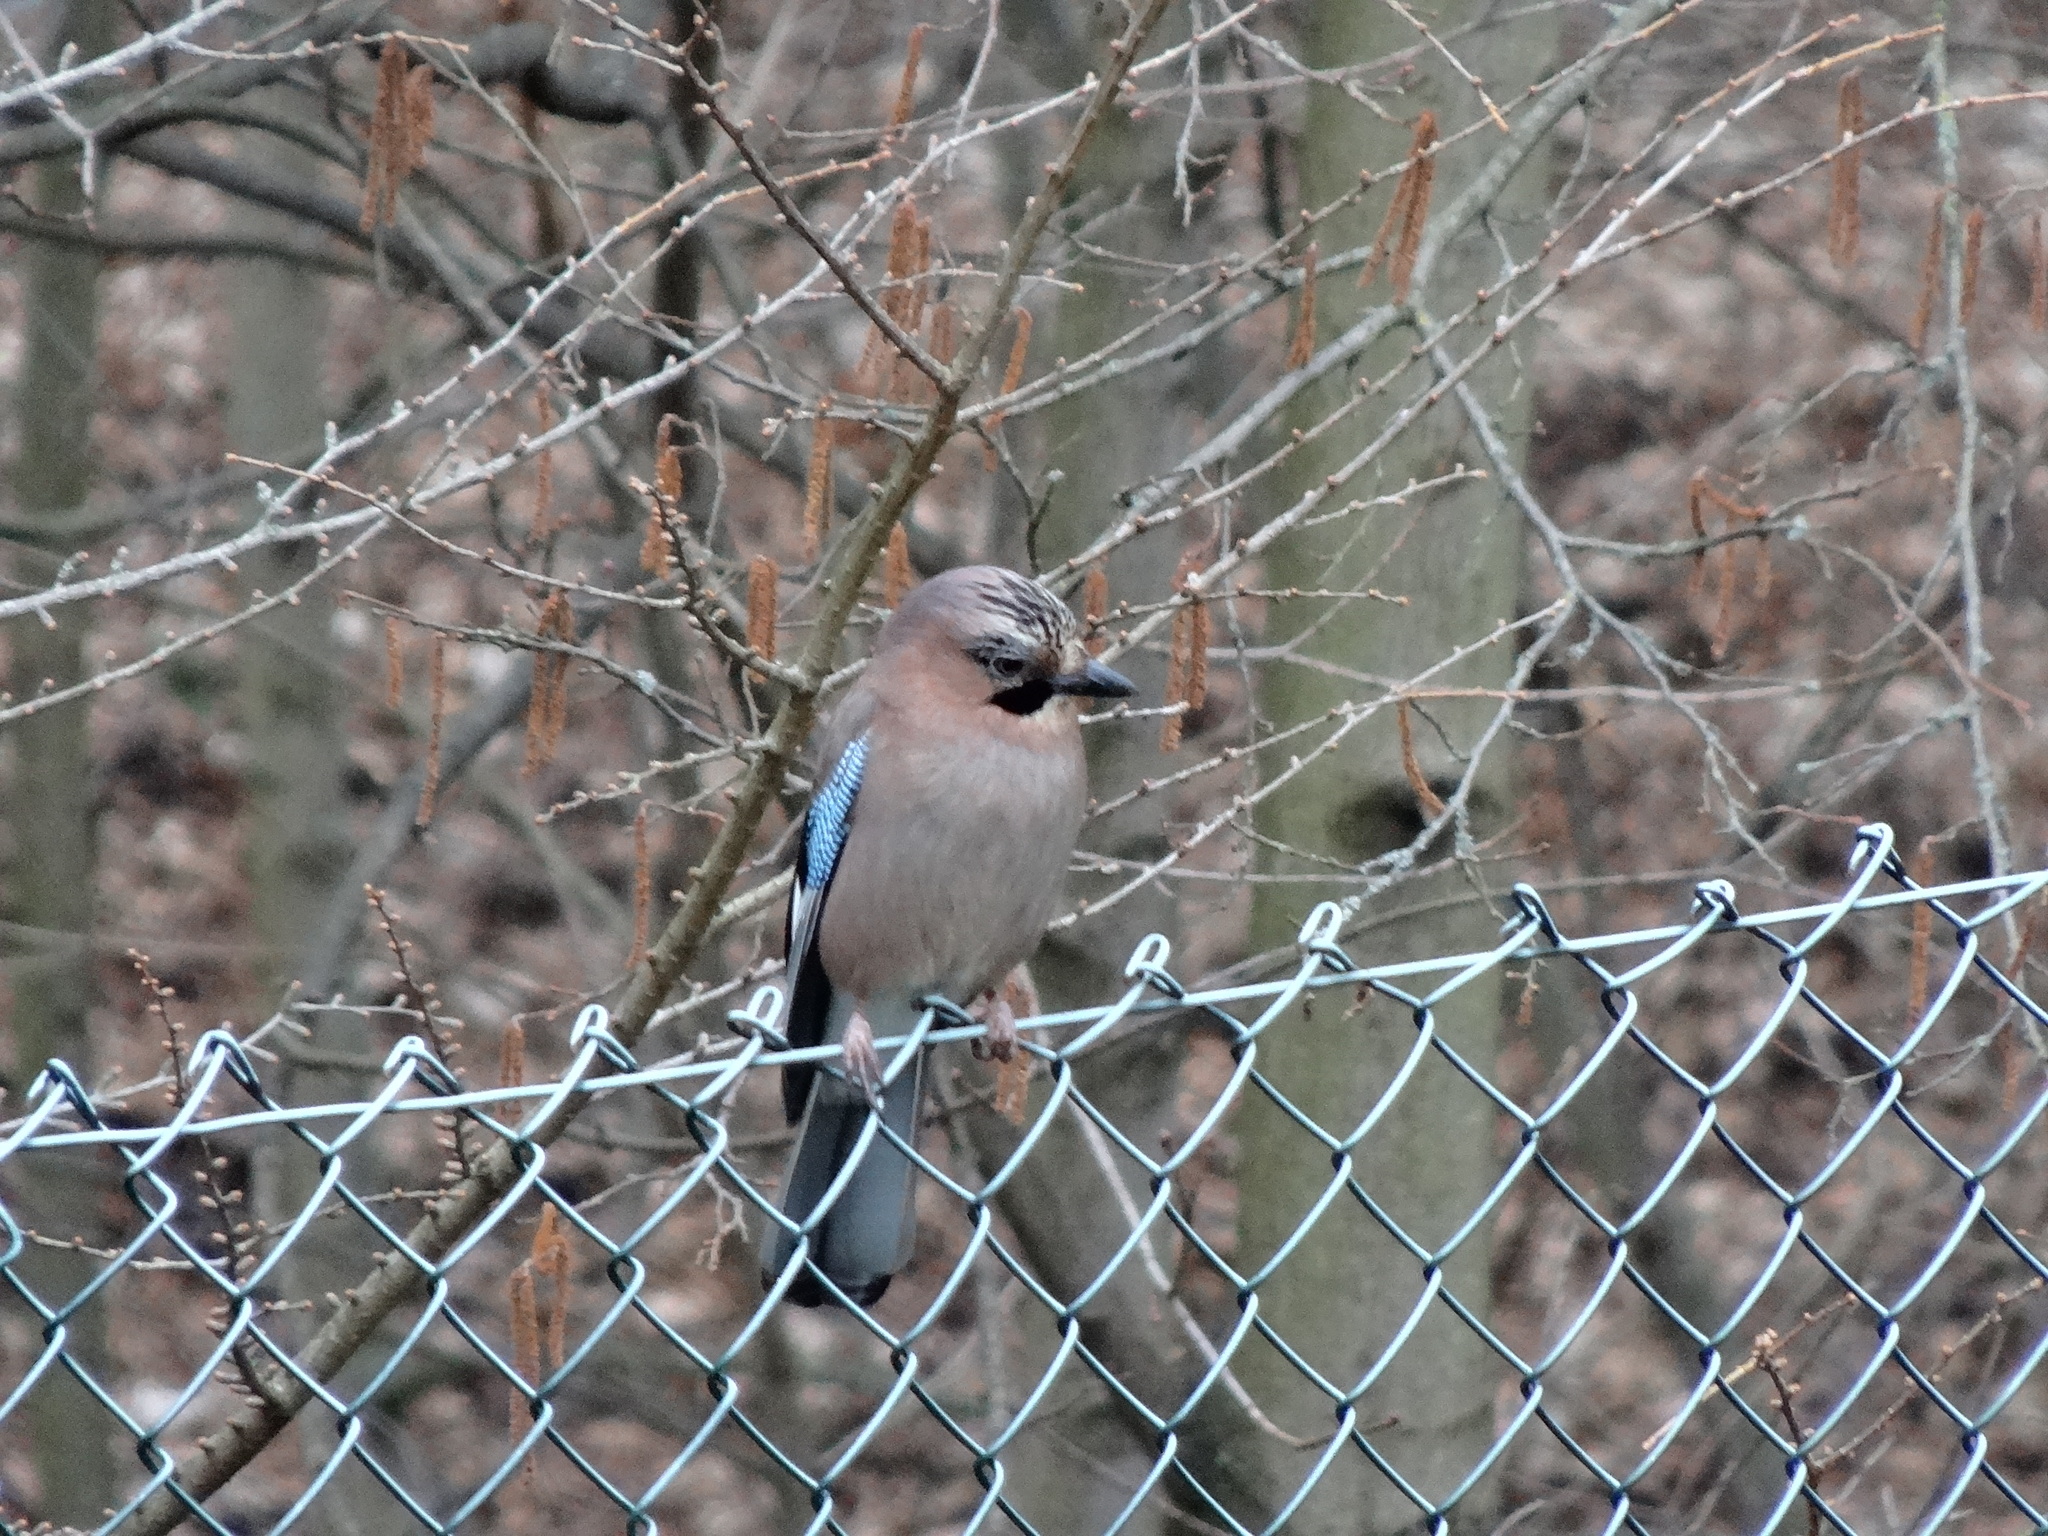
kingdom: Animalia
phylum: Chordata
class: Aves
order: Passeriformes
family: Corvidae
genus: Garrulus
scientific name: Garrulus glandarius
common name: Eurasian jay
